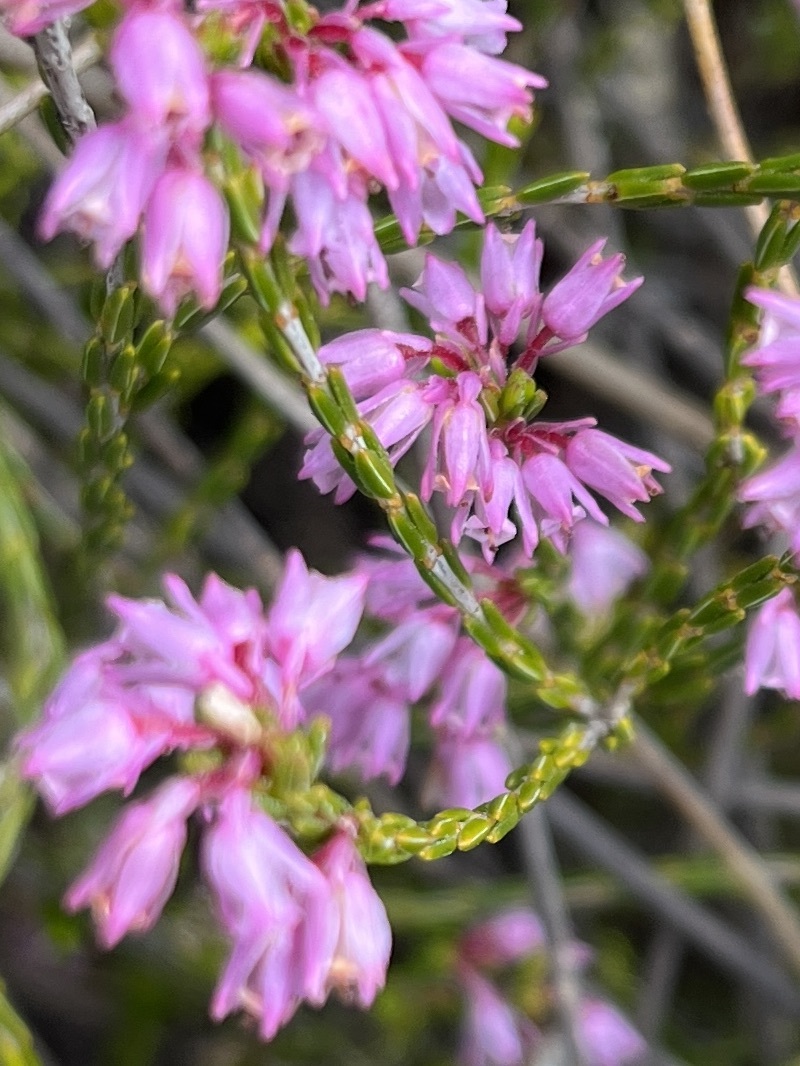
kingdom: Plantae
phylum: Tracheophyta
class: Magnoliopsida
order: Ericales
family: Ericaceae
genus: Erica
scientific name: Erica brevifolia
